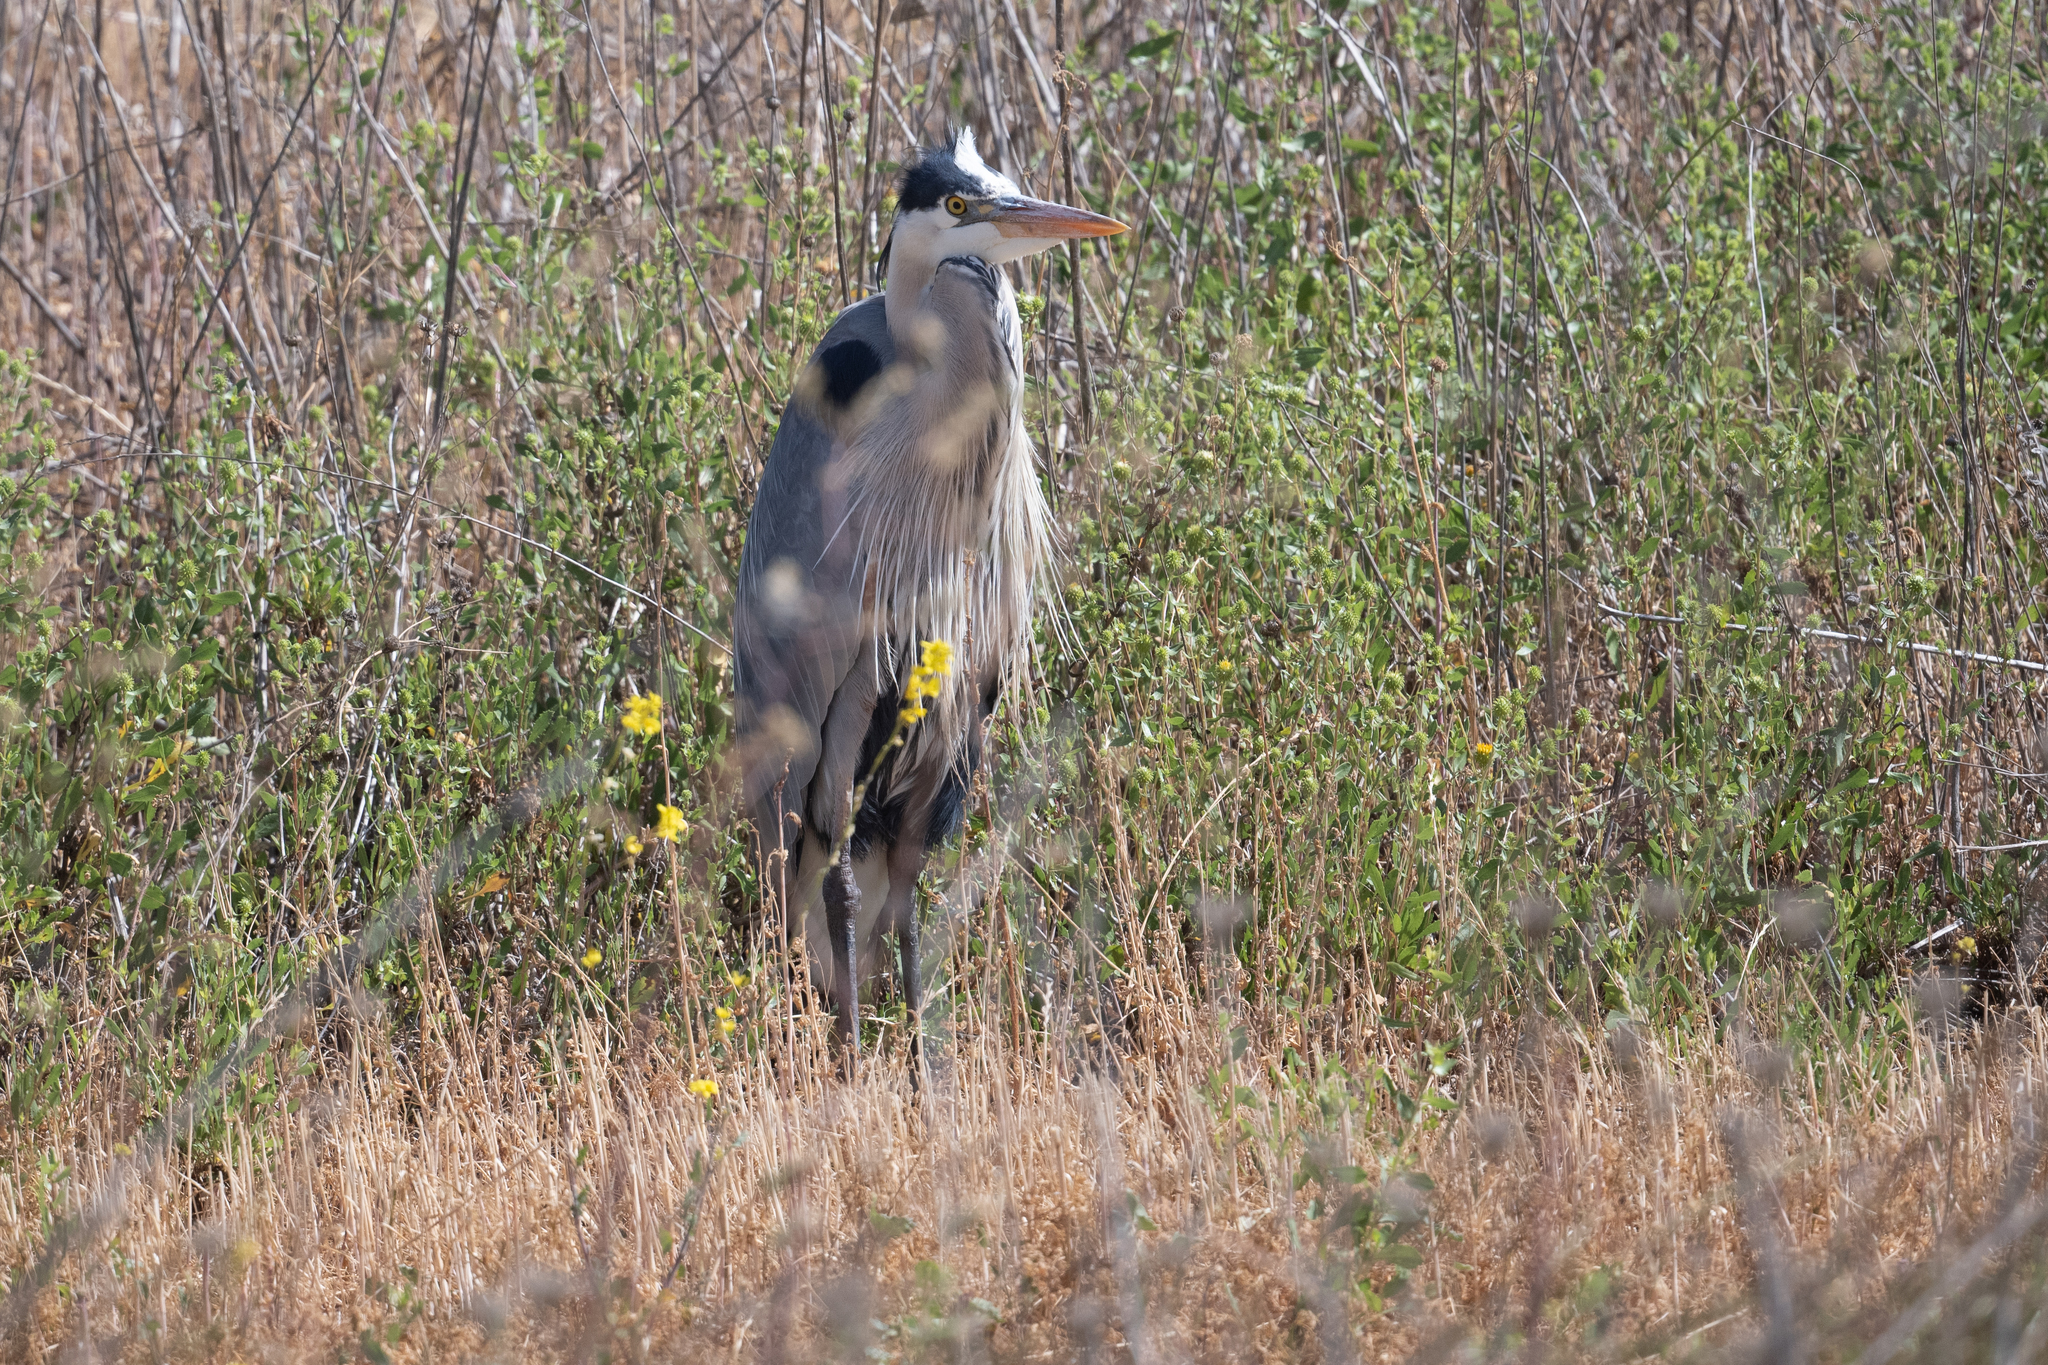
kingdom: Animalia
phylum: Chordata
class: Aves
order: Pelecaniformes
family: Ardeidae
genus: Ardea
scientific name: Ardea herodias
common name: Great blue heron
